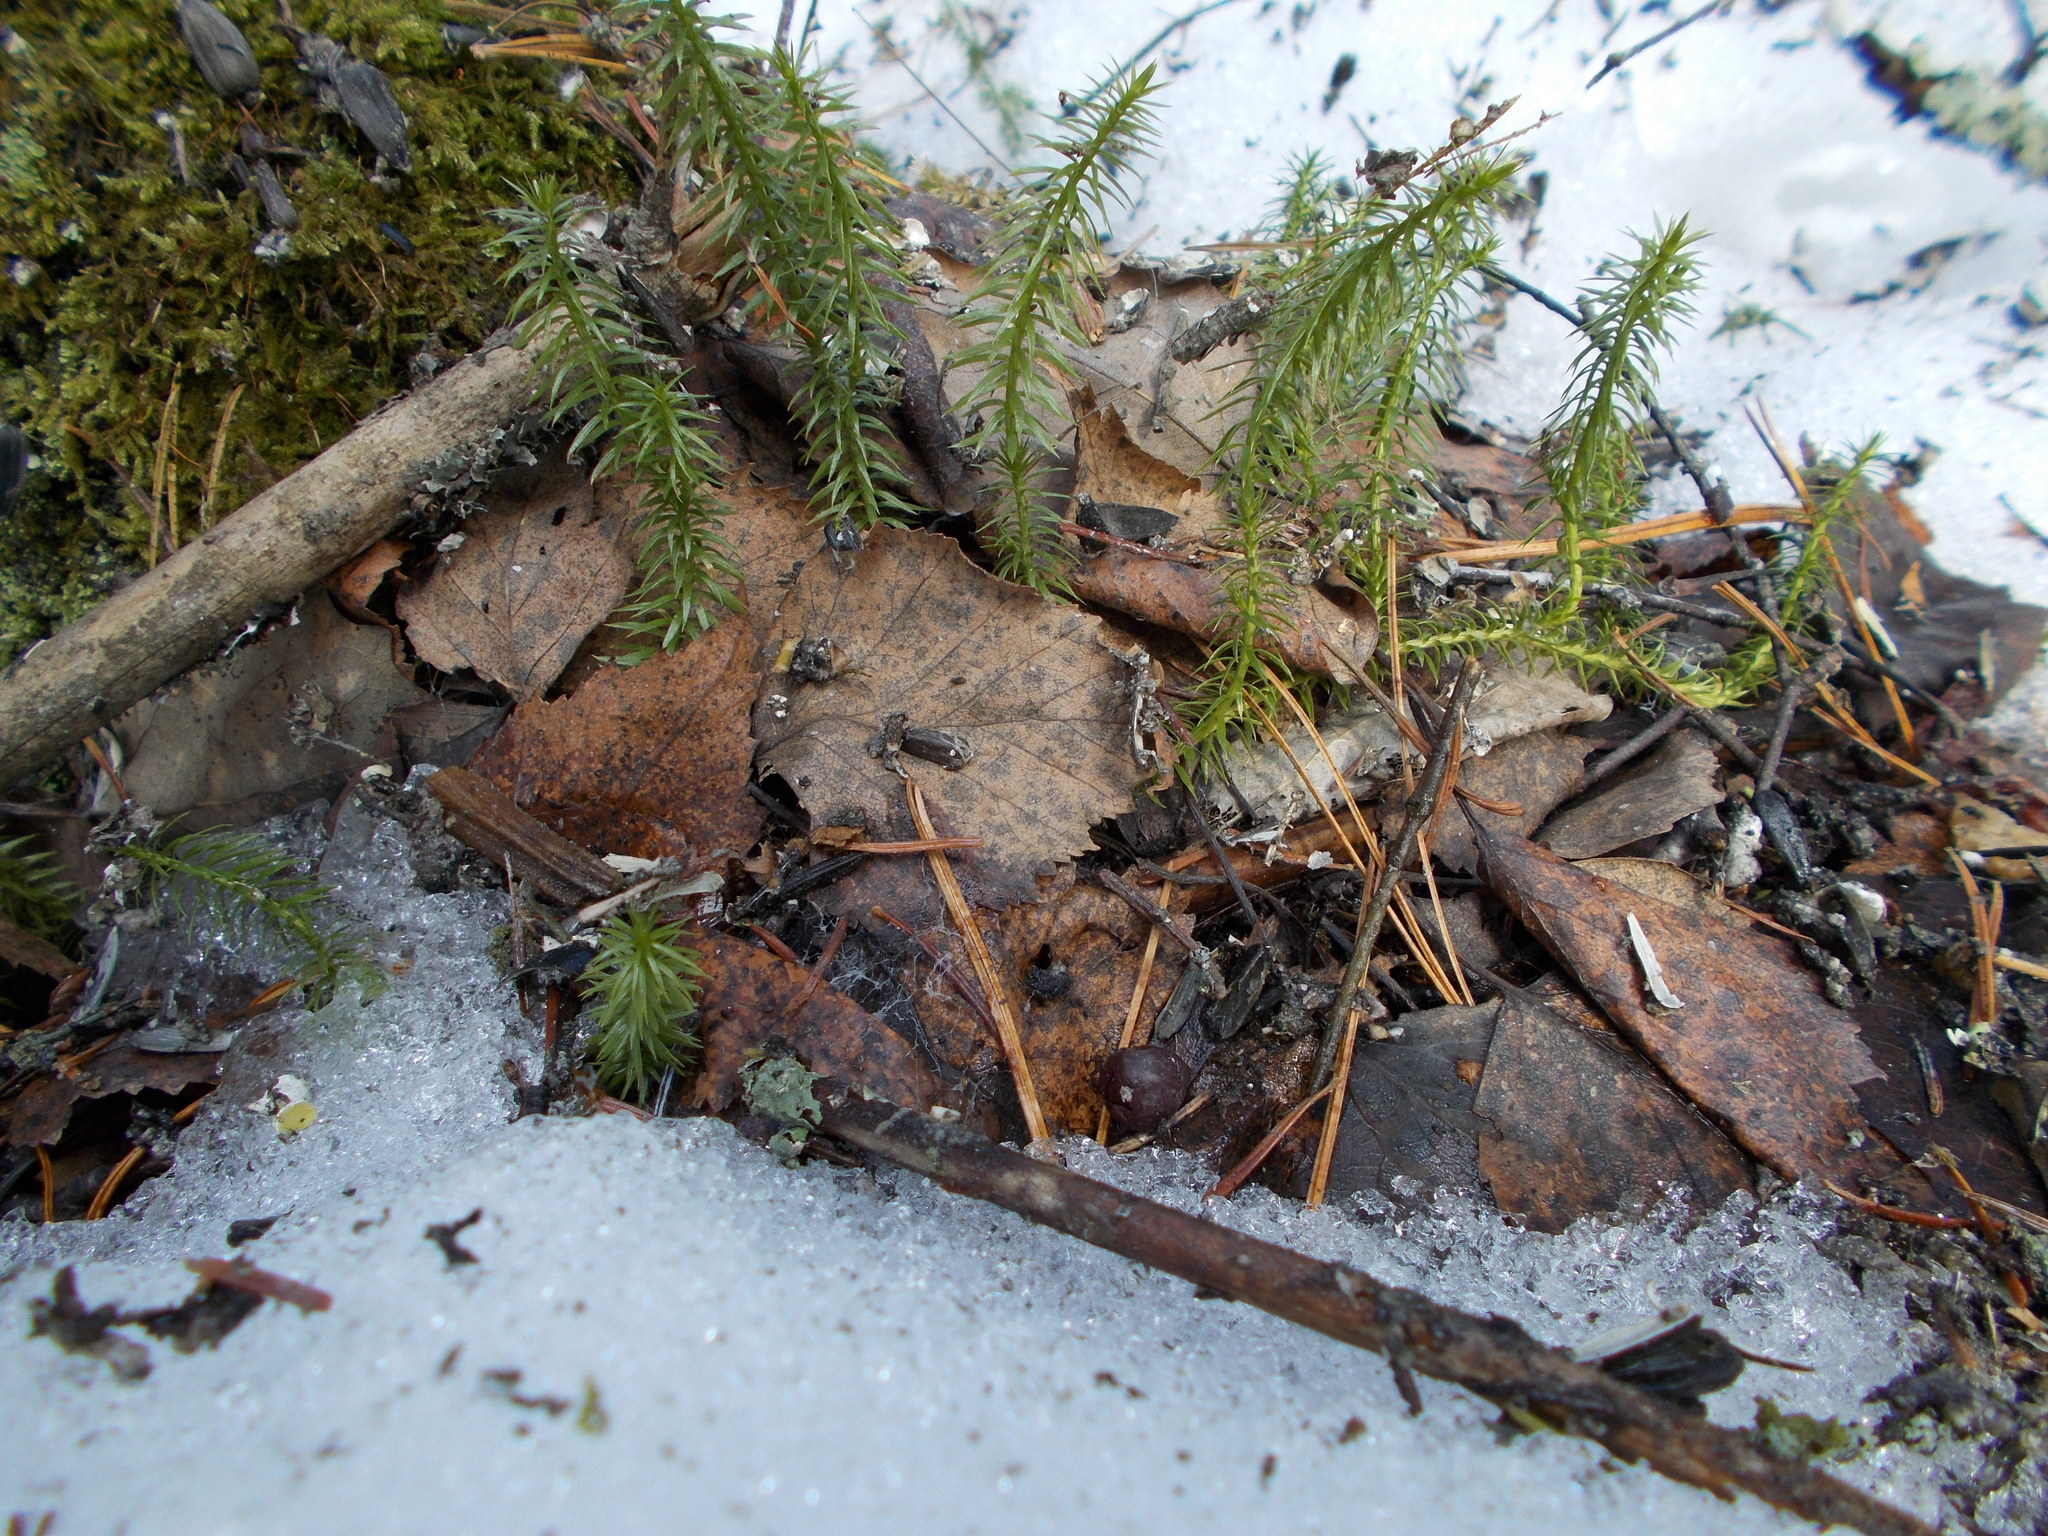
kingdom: Plantae
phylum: Tracheophyta
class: Lycopodiopsida
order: Lycopodiales
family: Lycopodiaceae
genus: Spinulum
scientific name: Spinulum annotinum
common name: Interrupted club-moss
